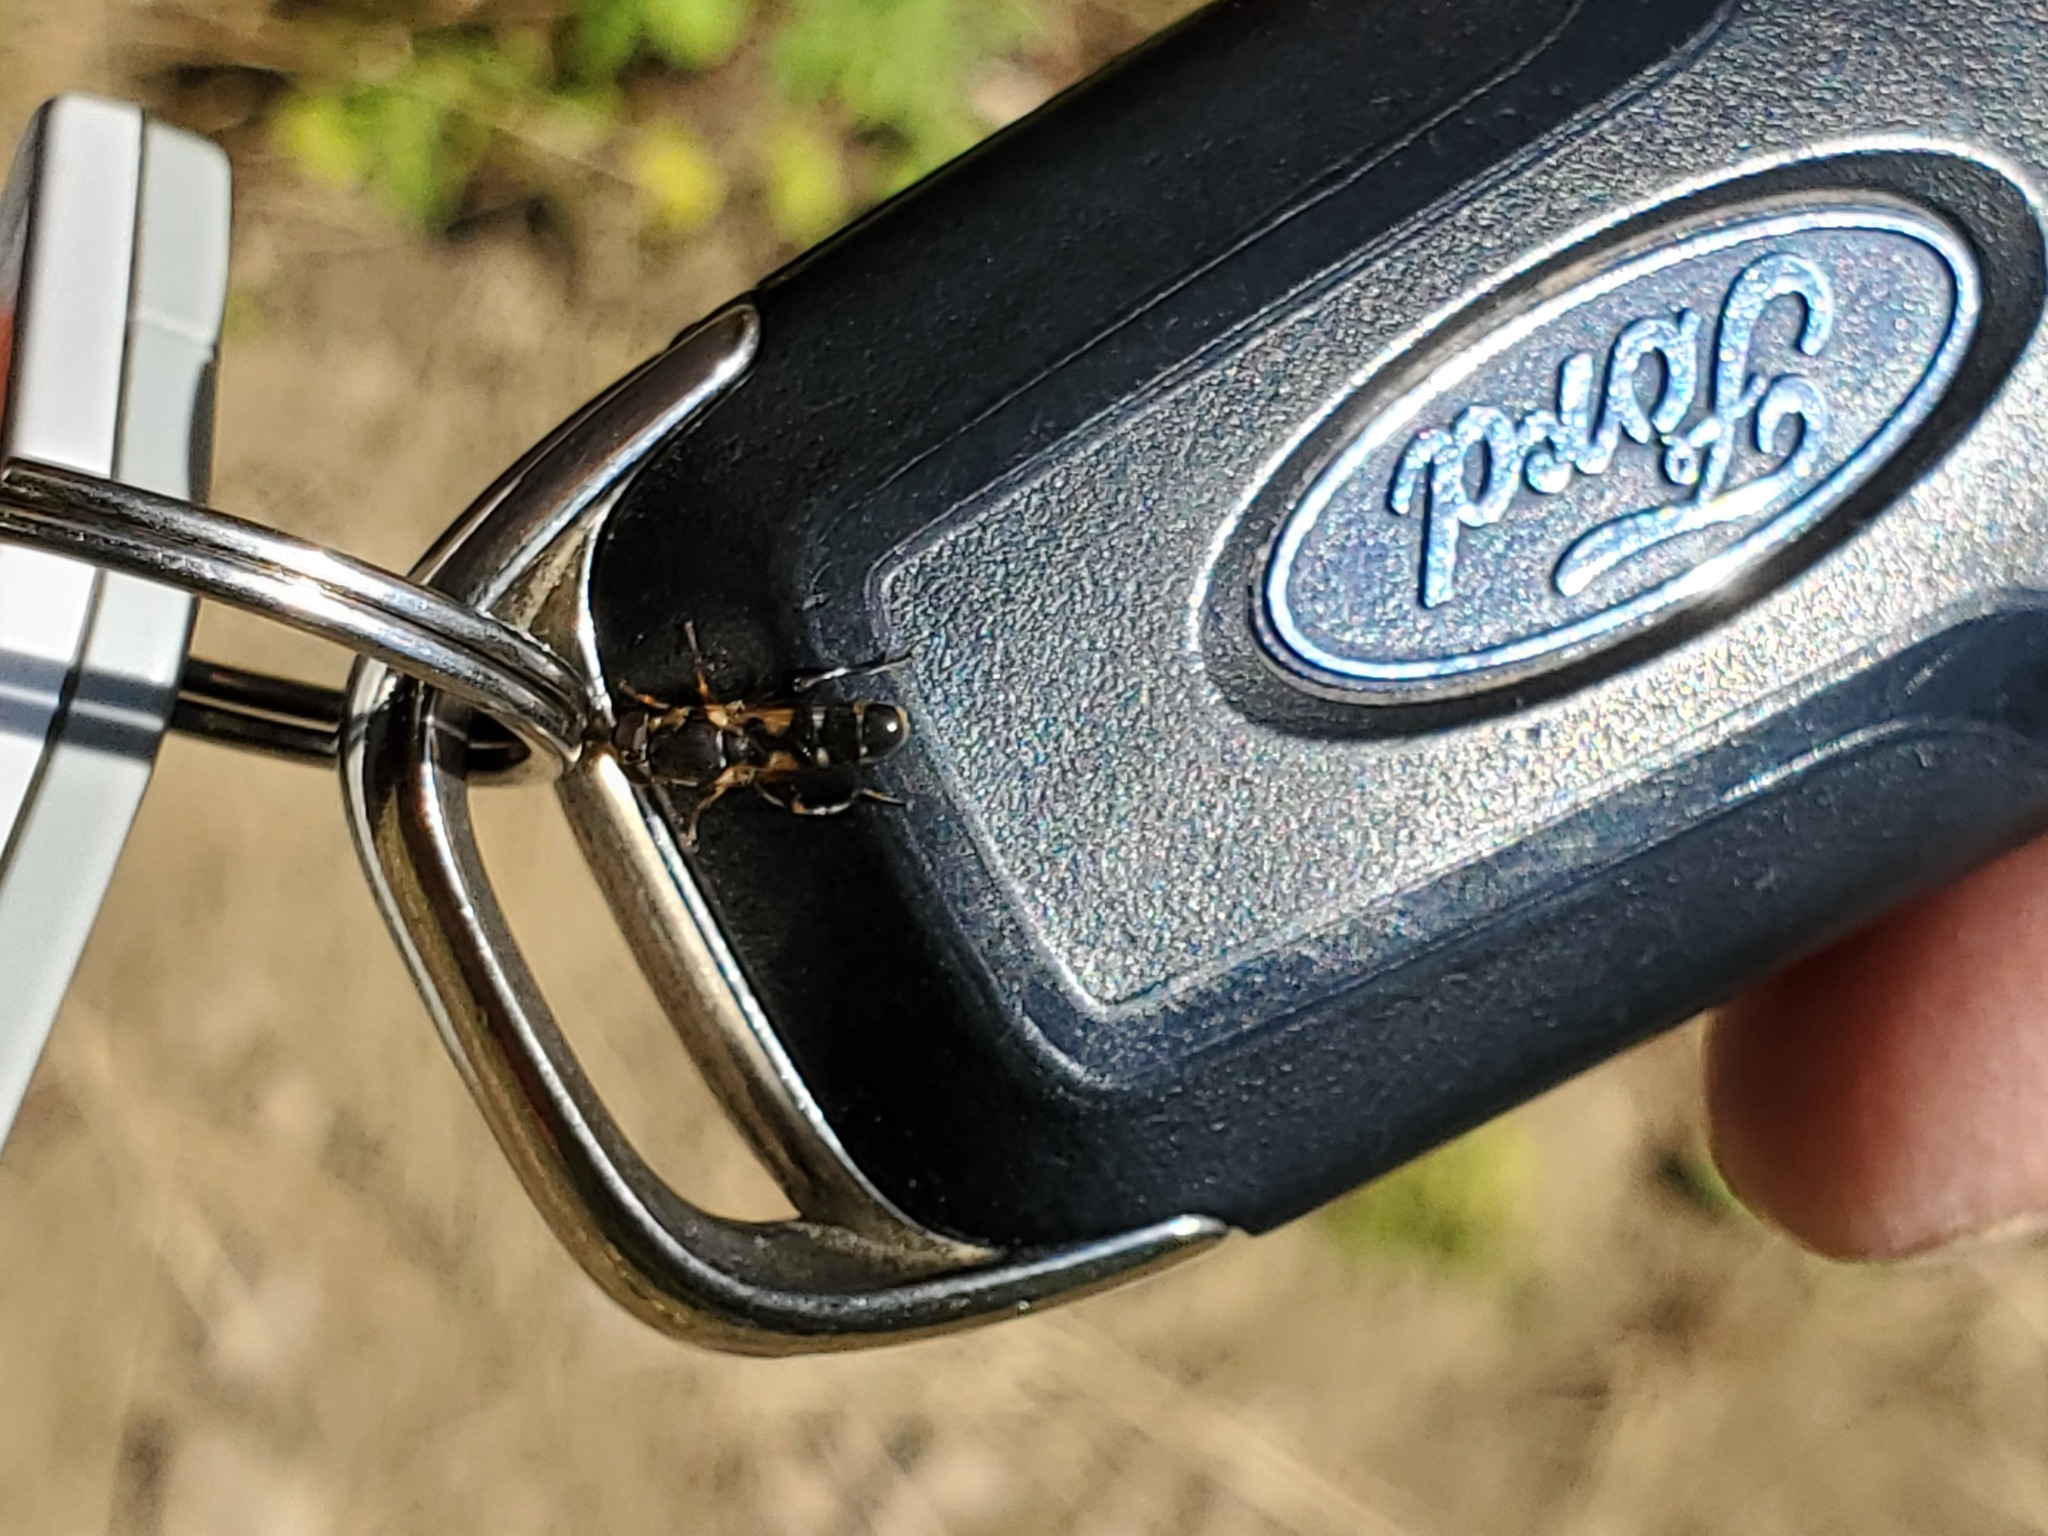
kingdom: Animalia
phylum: Arthropoda
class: Insecta
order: Diptera
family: Syrphidae
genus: Syritta
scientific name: Syritta pipiens
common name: Hover fly
